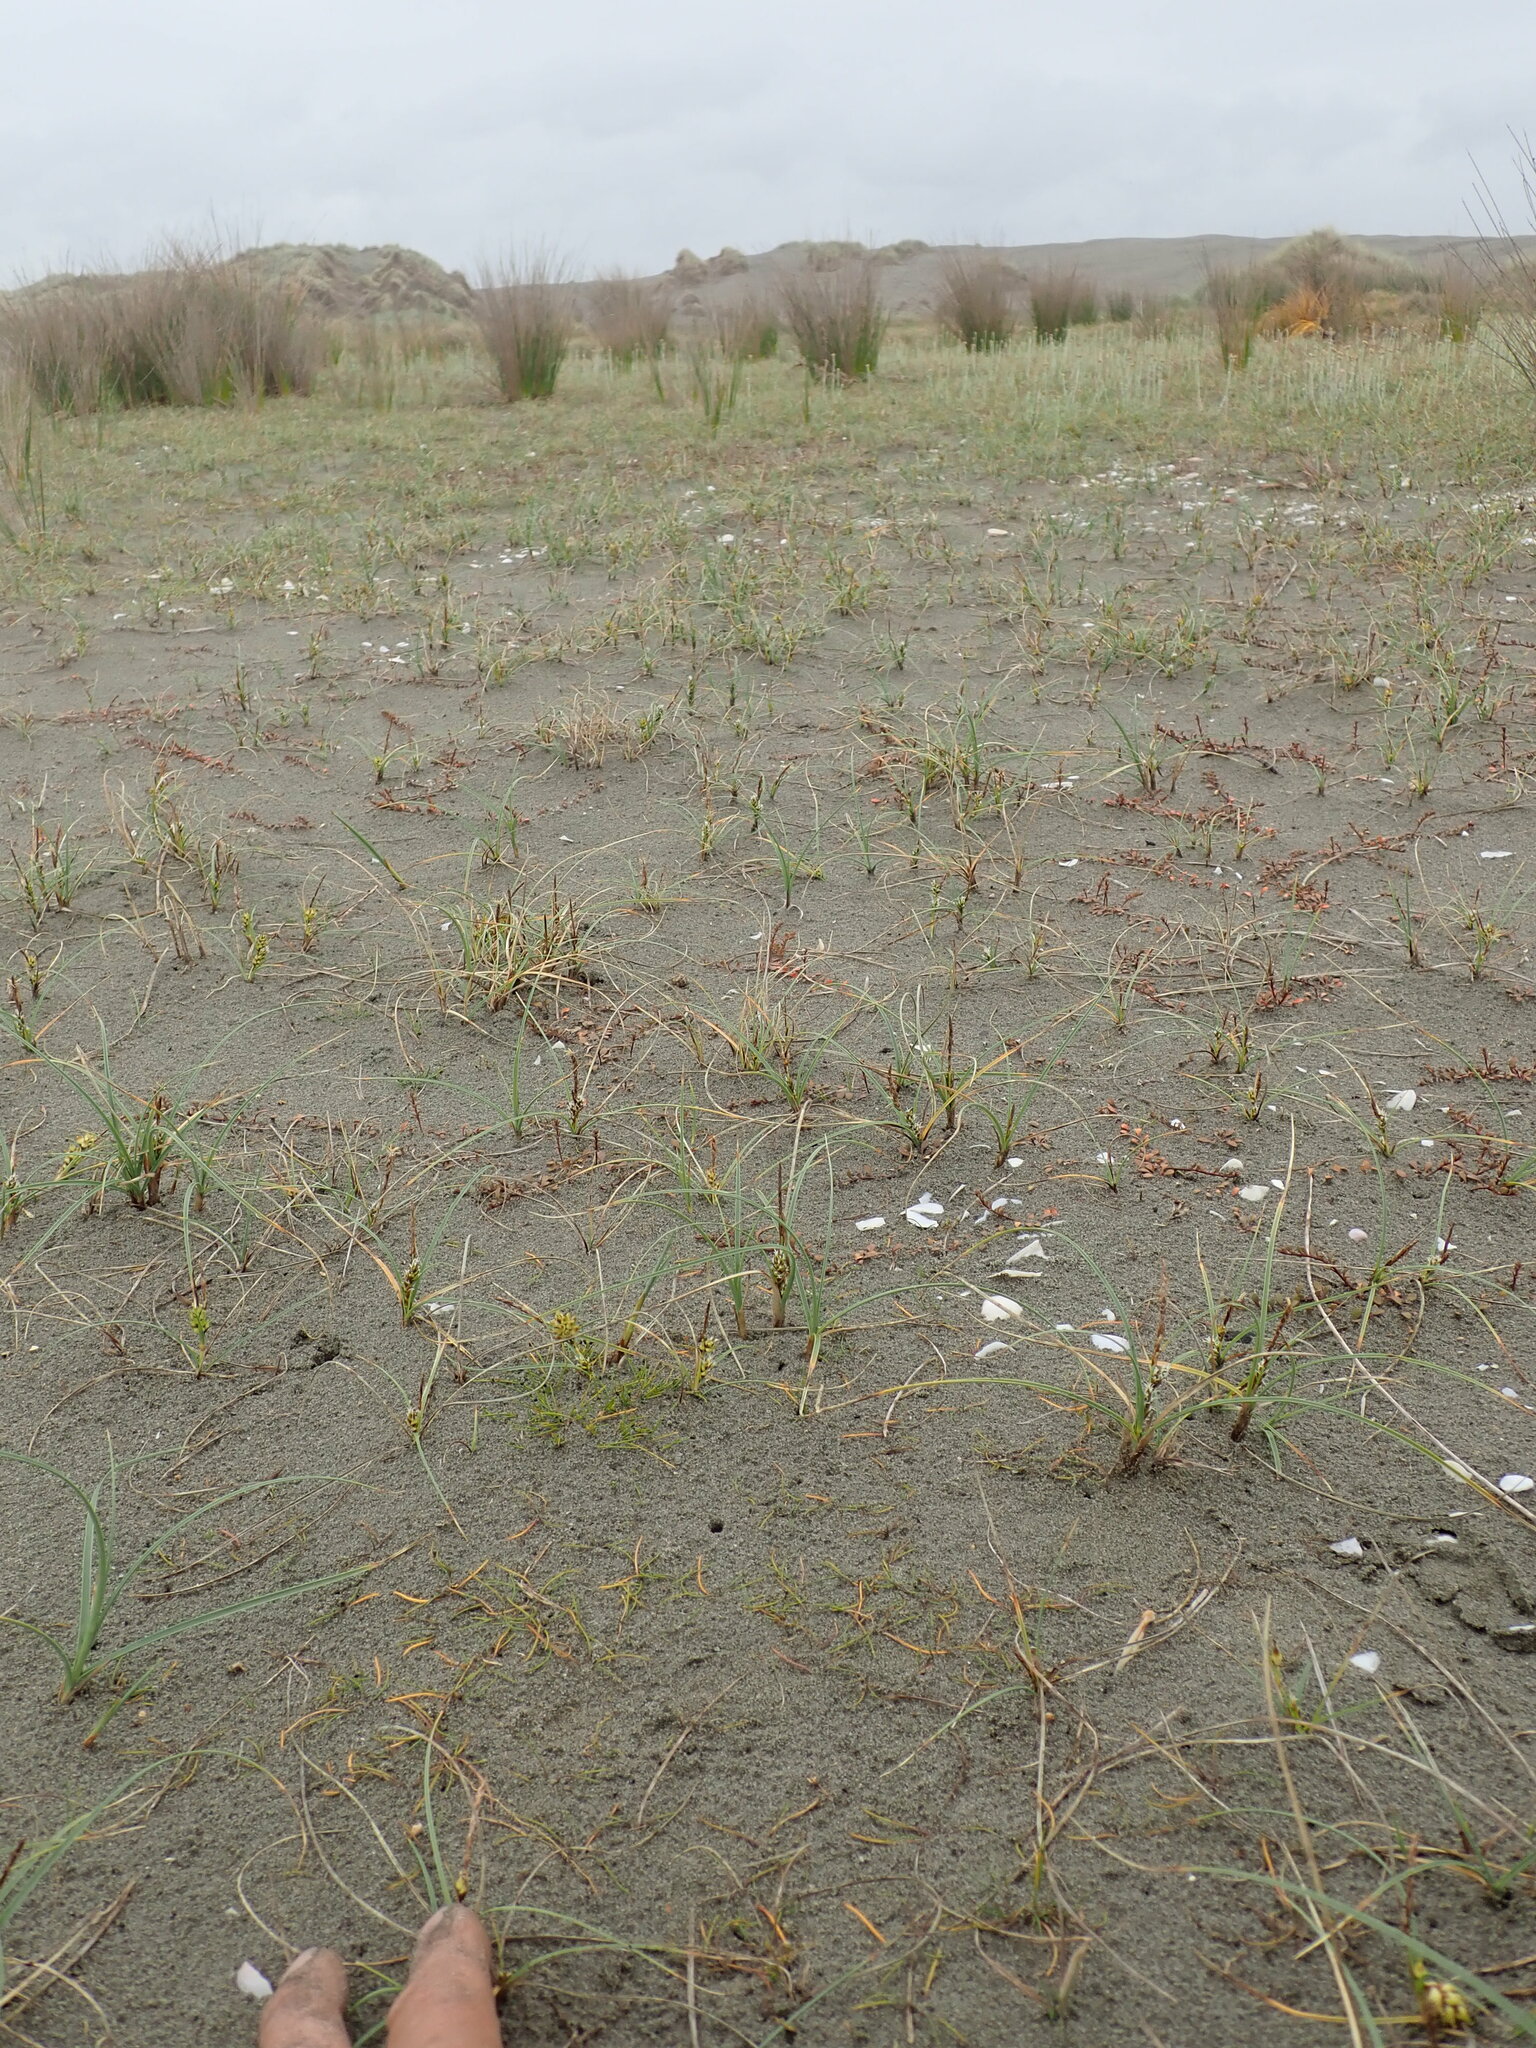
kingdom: Plantae
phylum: Tracheophyta
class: Liliopsida
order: Alismatales
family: Juncaginaceae
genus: Triglochin
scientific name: Triglochin striata
